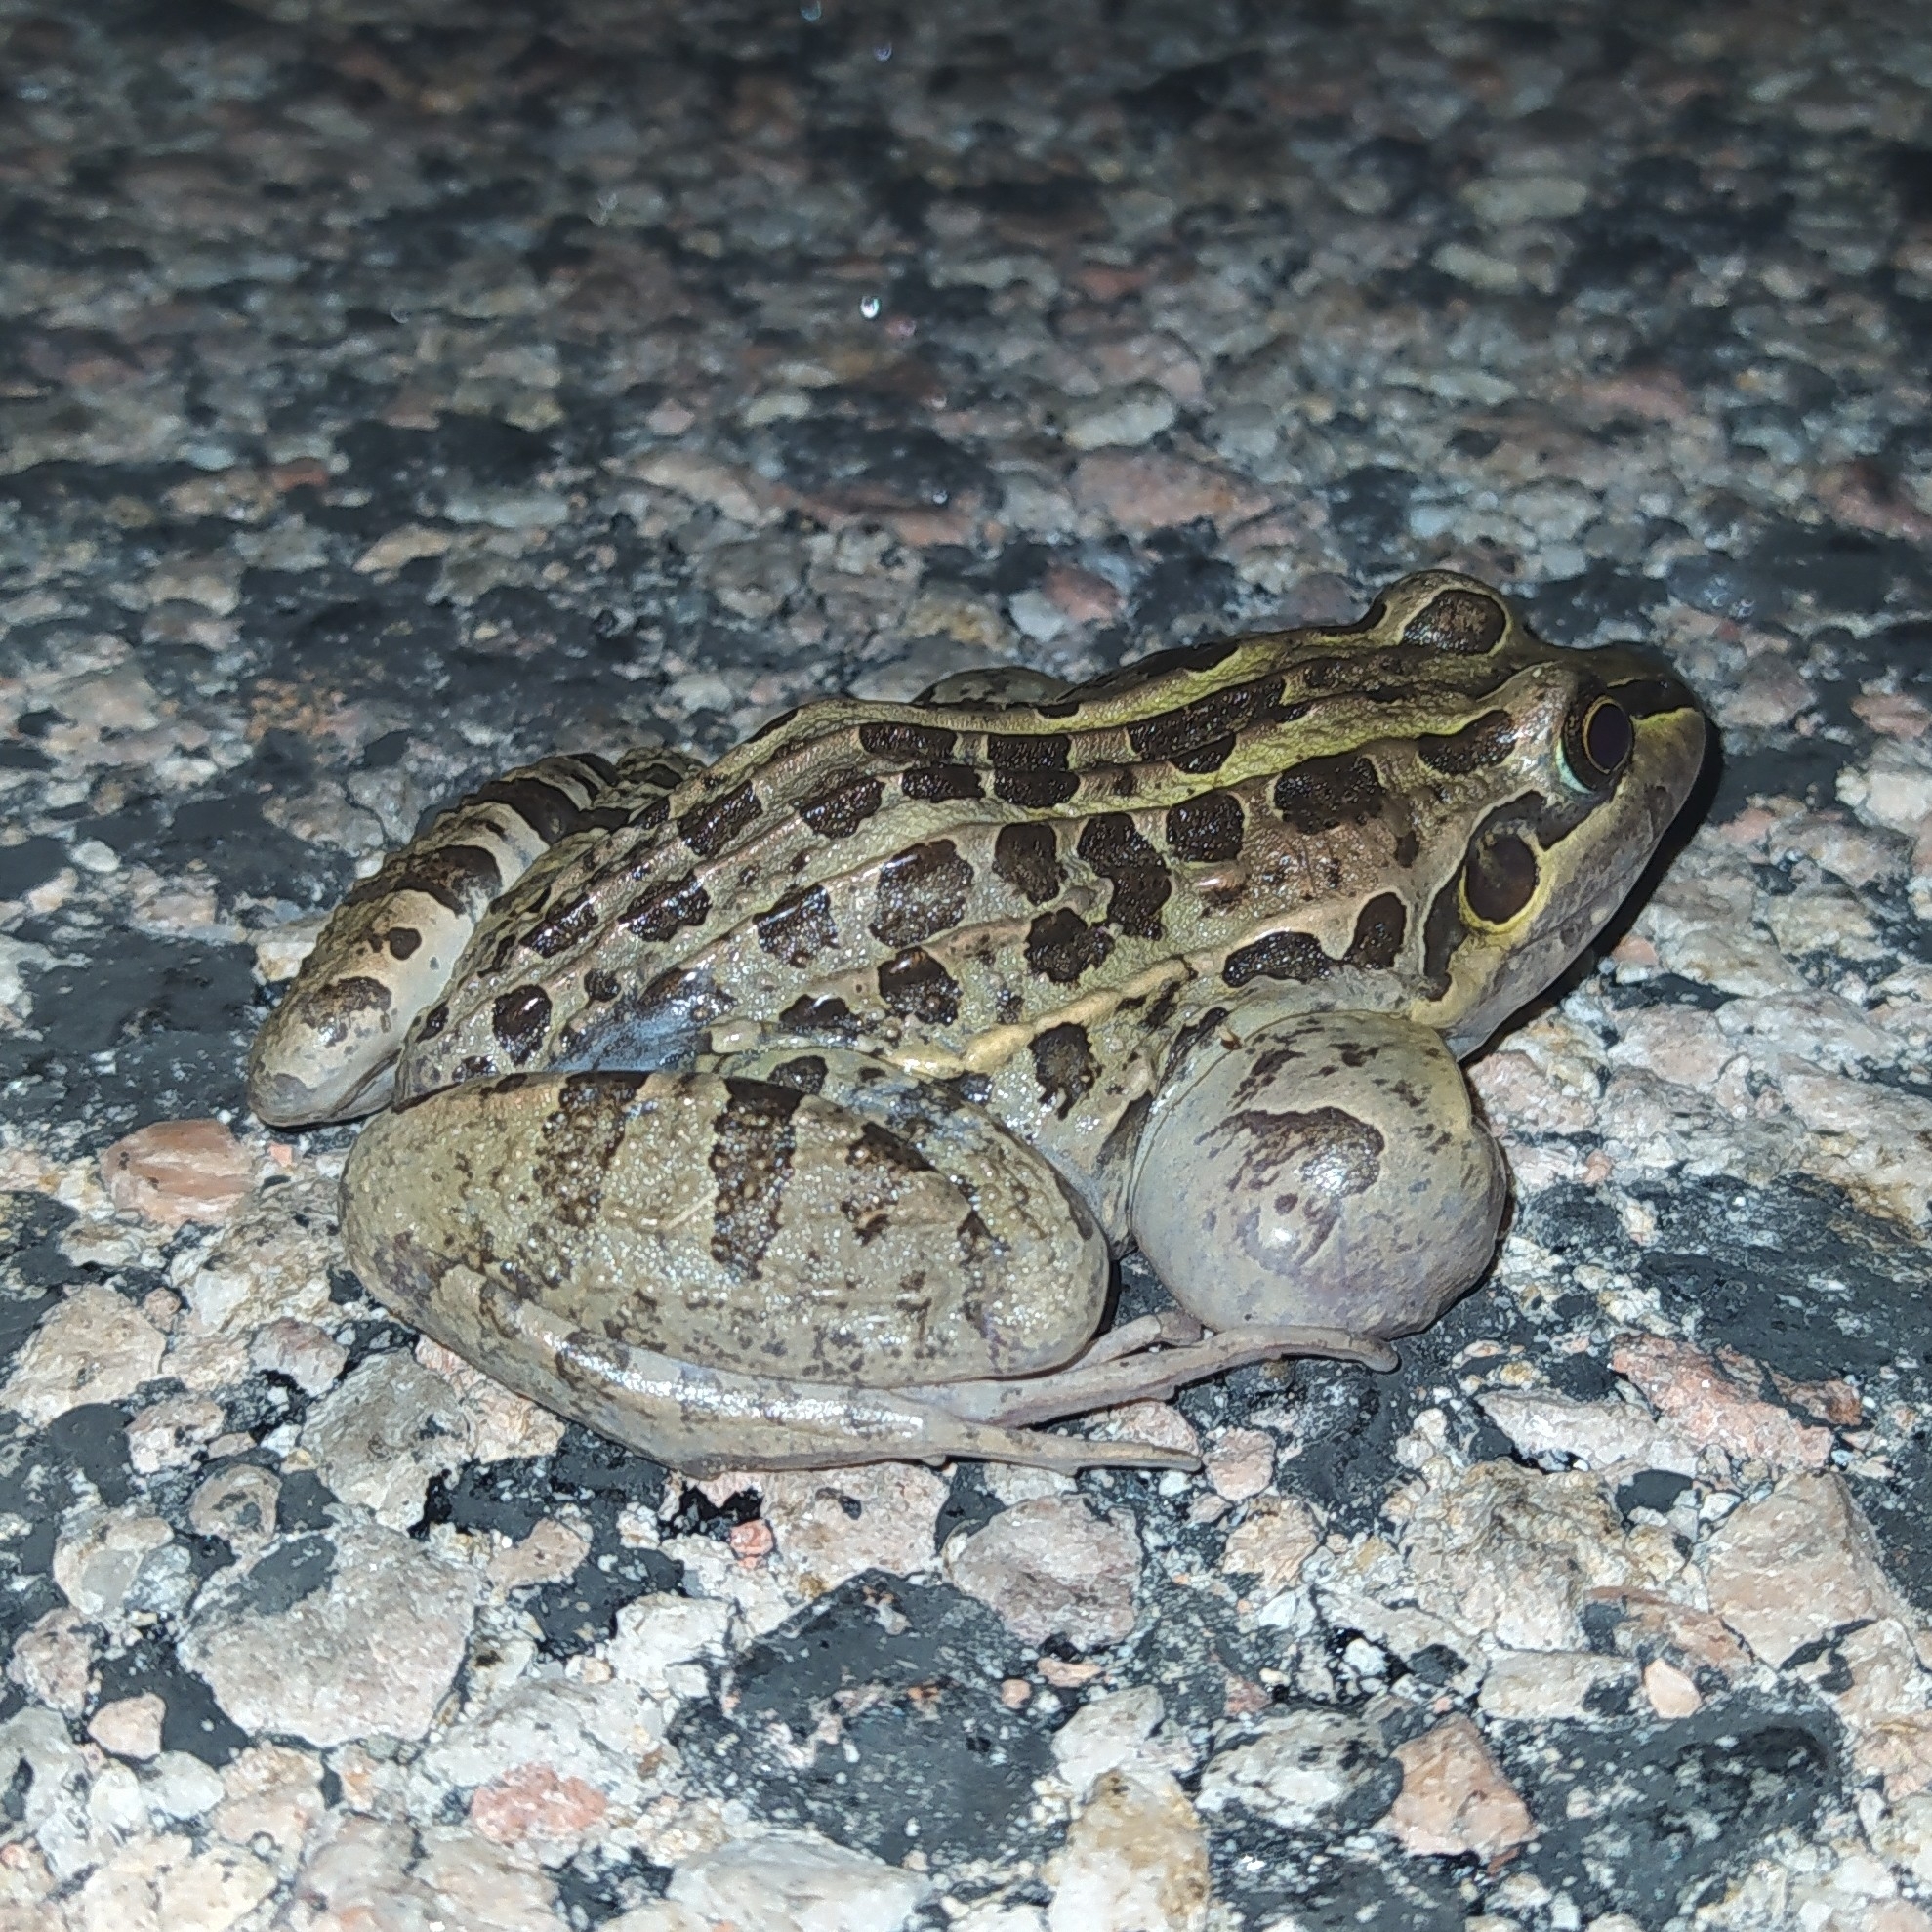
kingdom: Animalia
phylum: Chordata
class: Amphibia
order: Anura
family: Leptodactylidae
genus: Leptodactylus
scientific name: Leptodactylus luctator
